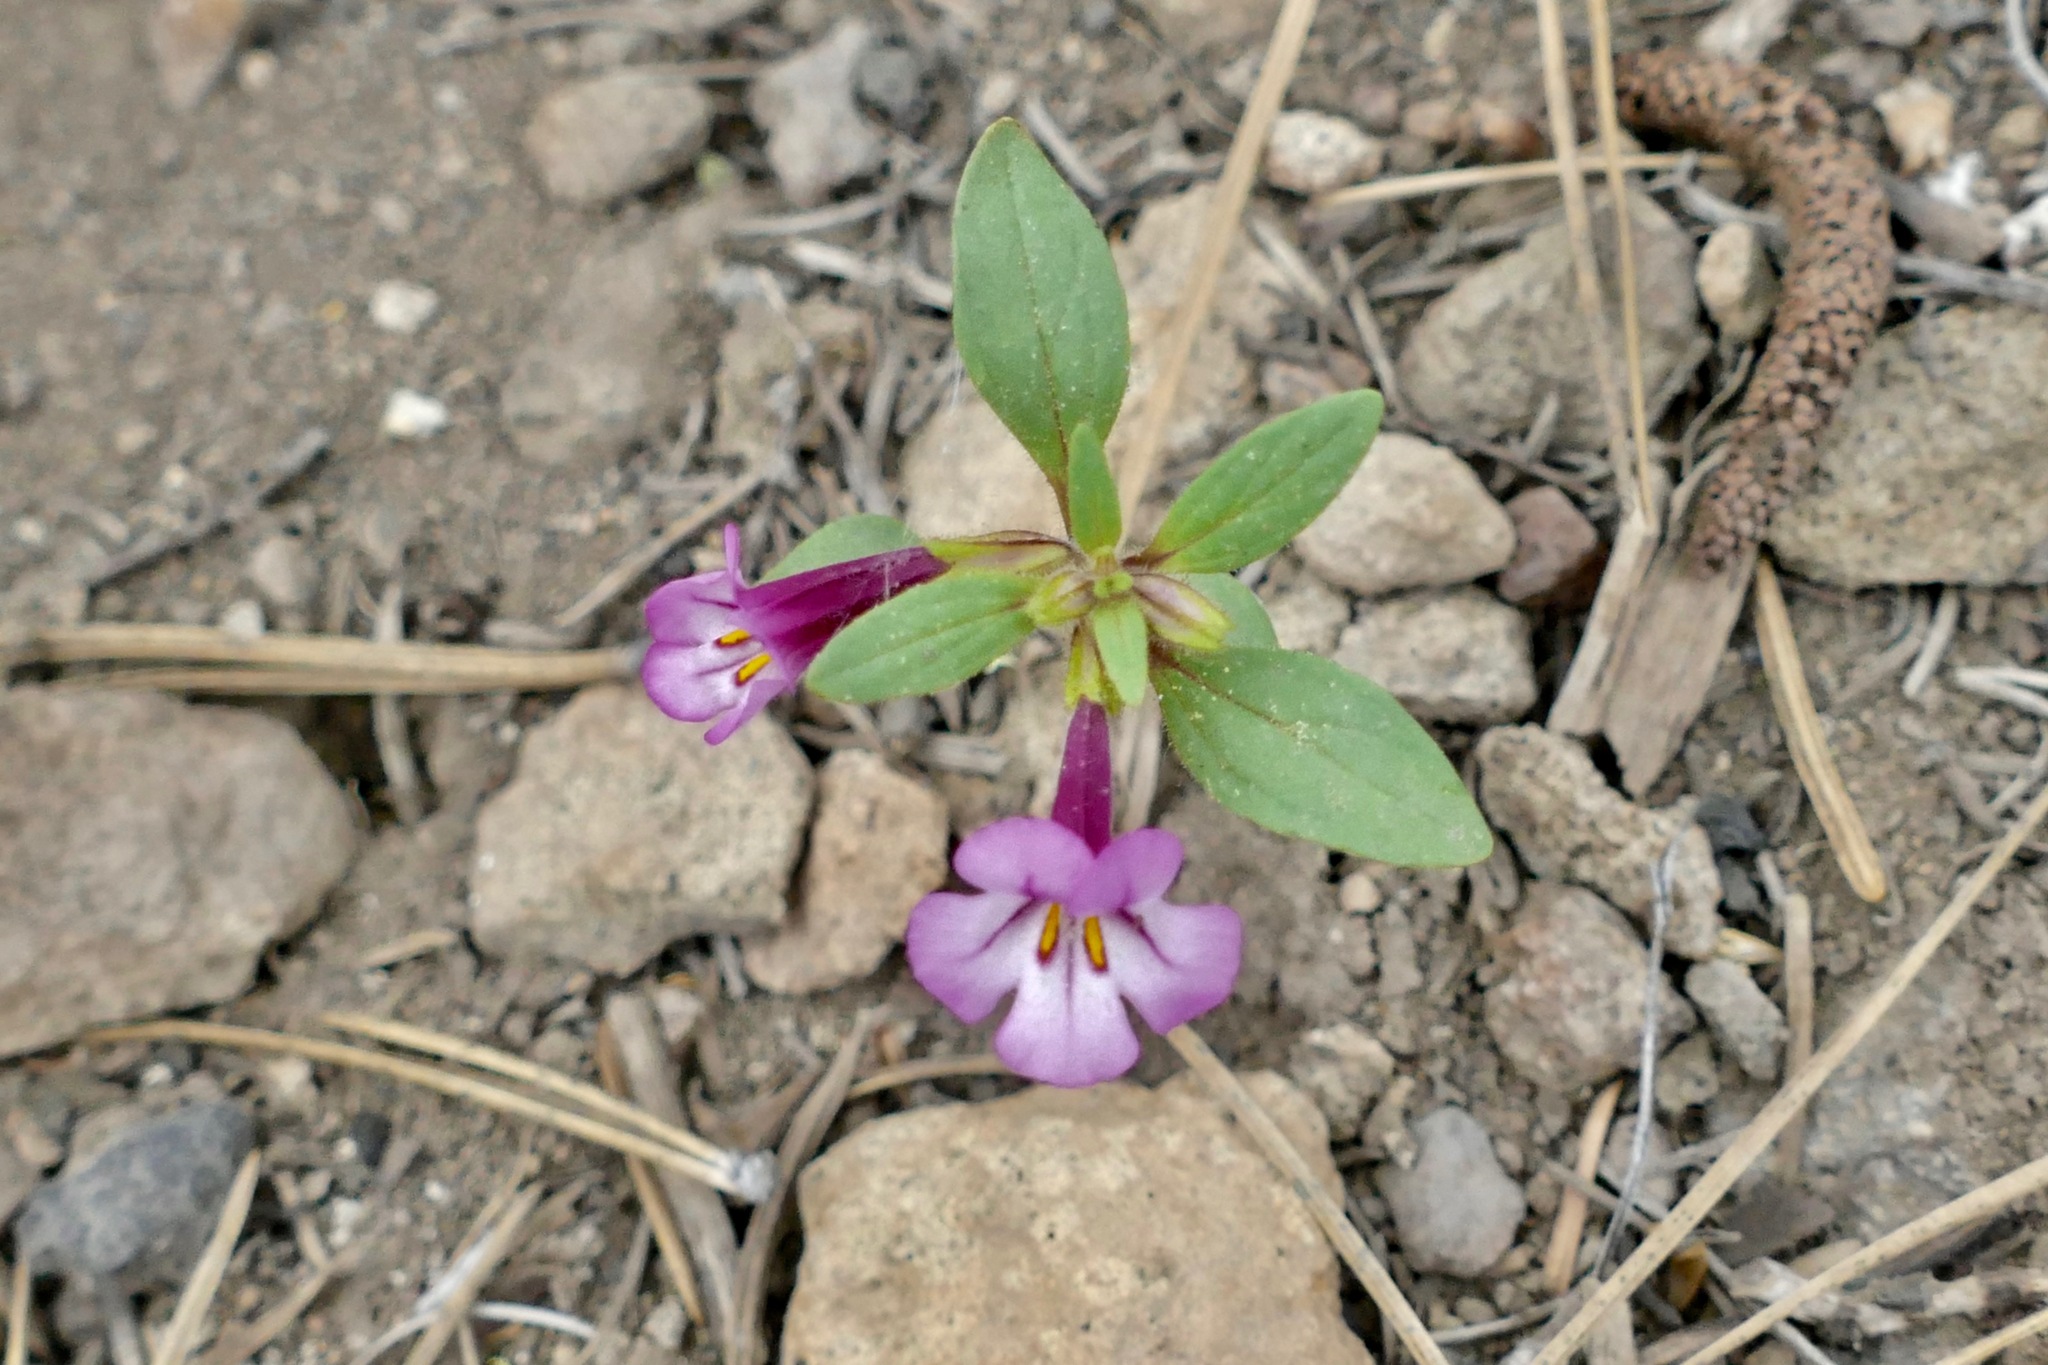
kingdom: Plantae
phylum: Tracheophyta
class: Magnoliopsida
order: Lamiales
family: Phrymaceae
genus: Diplacus
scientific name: Diplacus torreyi
